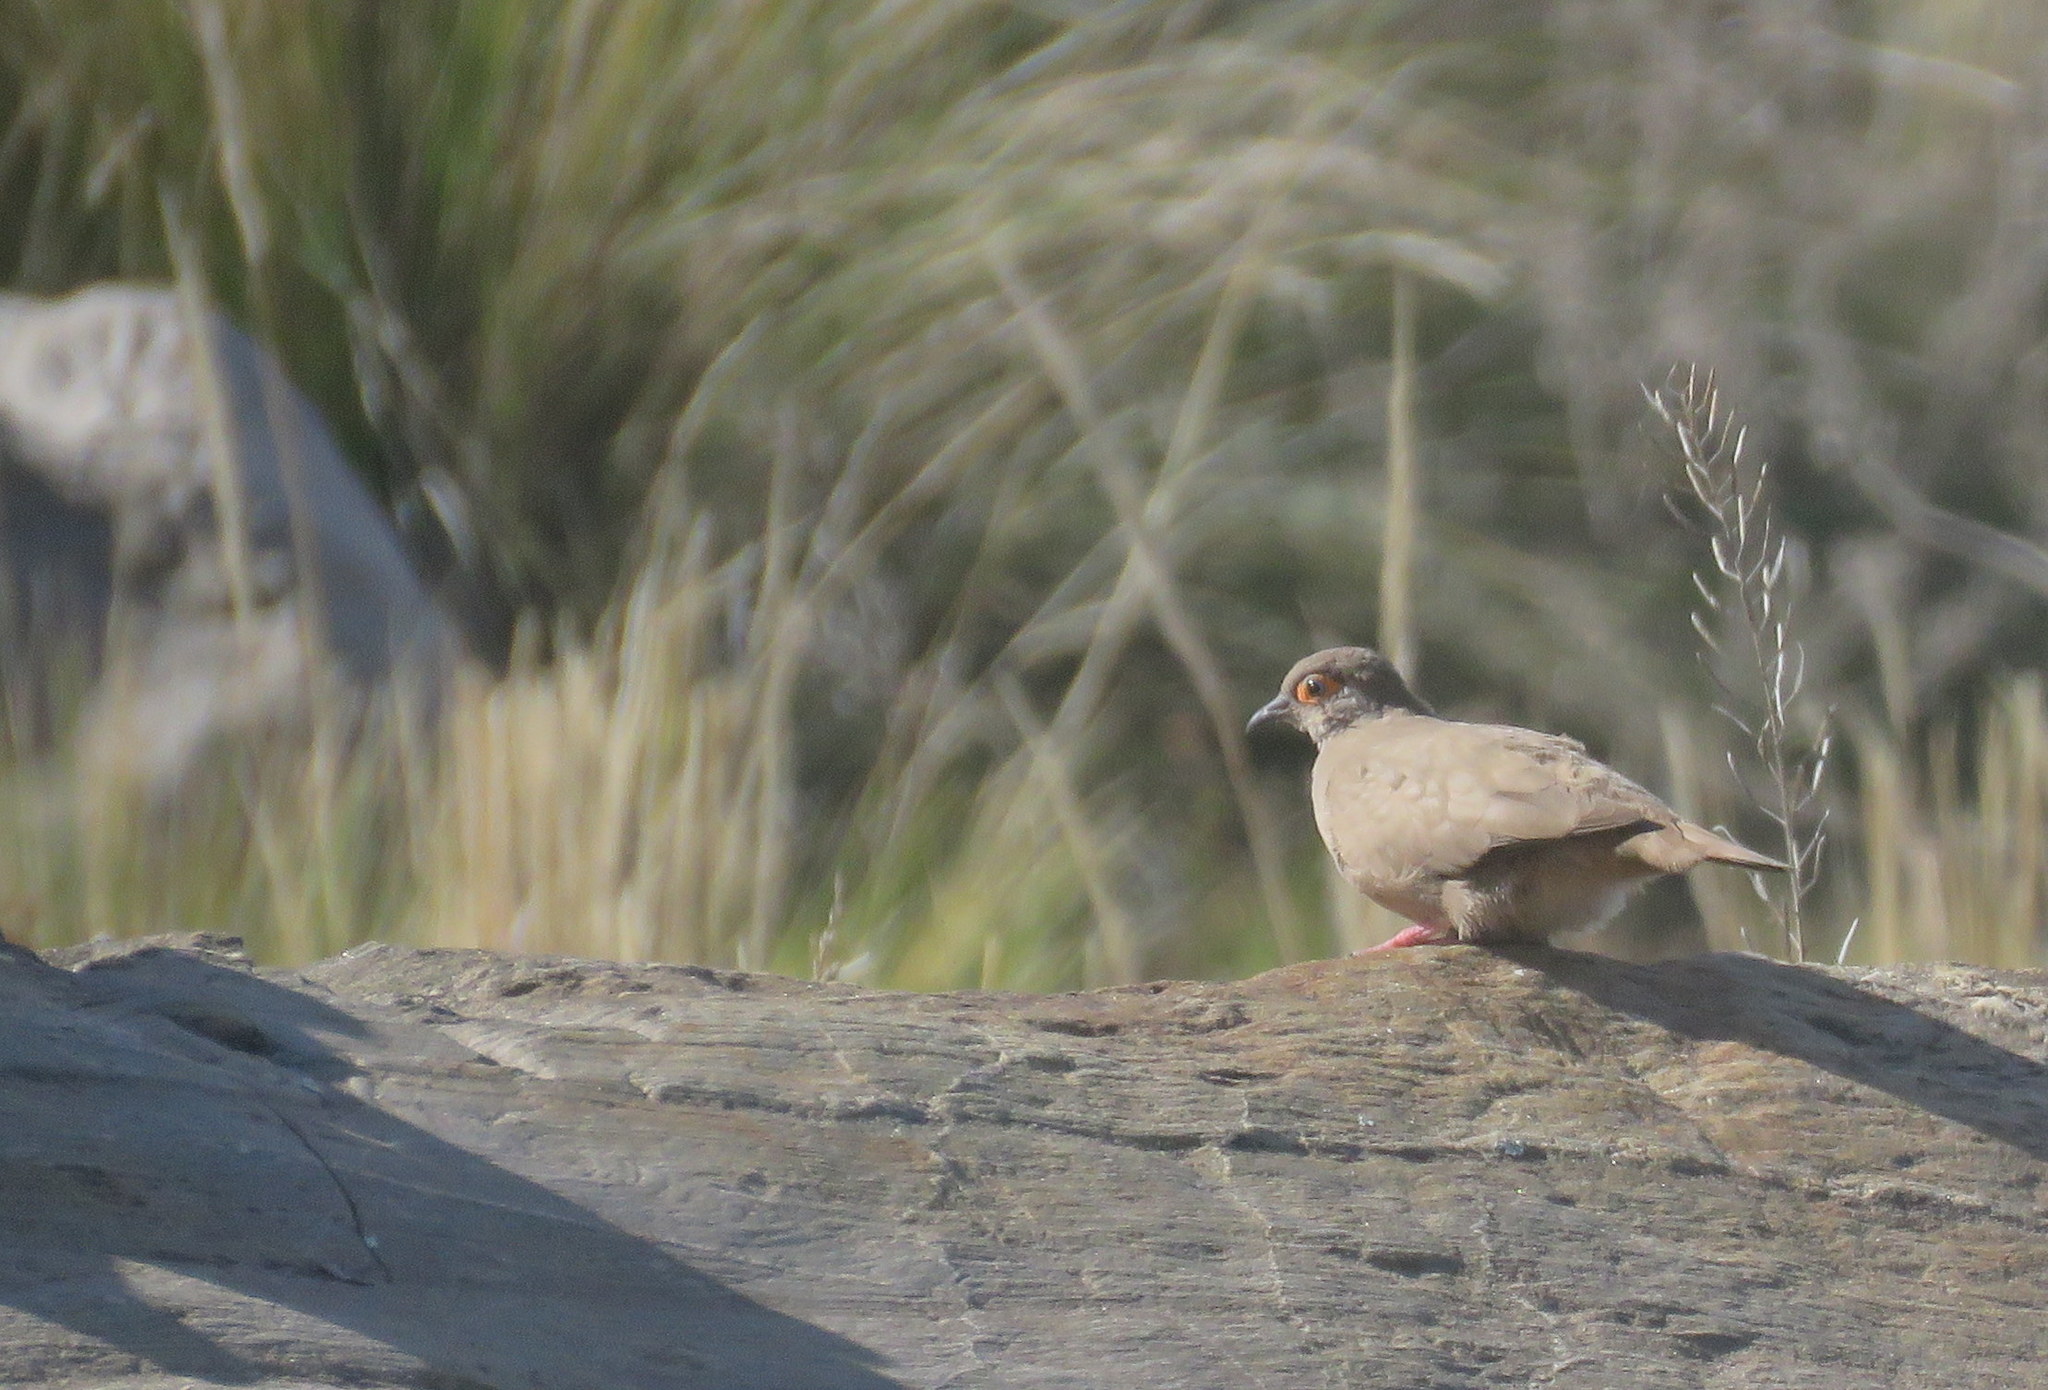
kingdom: Animalia
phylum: Chordata
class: Aves
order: Columbiformes
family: Columbidae
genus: Metriopelia
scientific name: Metriopelia morenoi
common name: Moreno's ground dove
